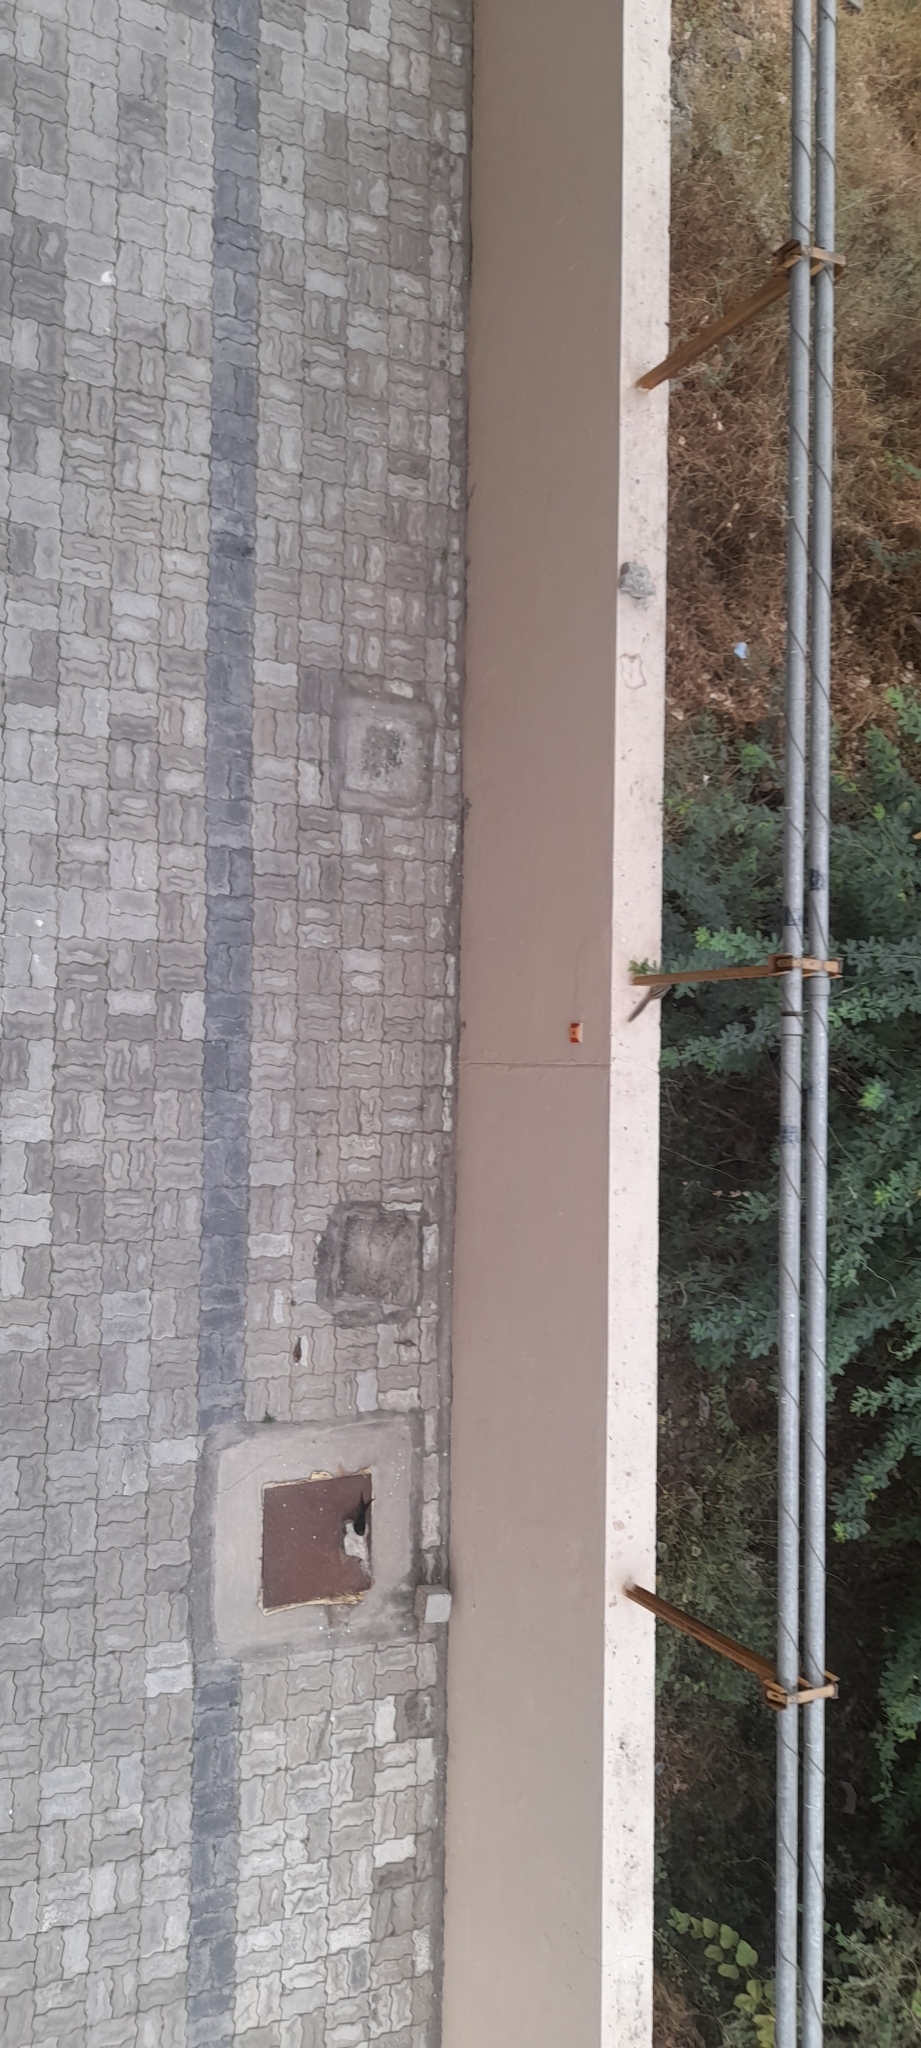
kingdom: Animalia
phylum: Chordata
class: Mammalia
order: Rodentia
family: Sciuridae
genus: Funambulus
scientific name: Funambulus palmarum
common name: Indian palm squirrel
